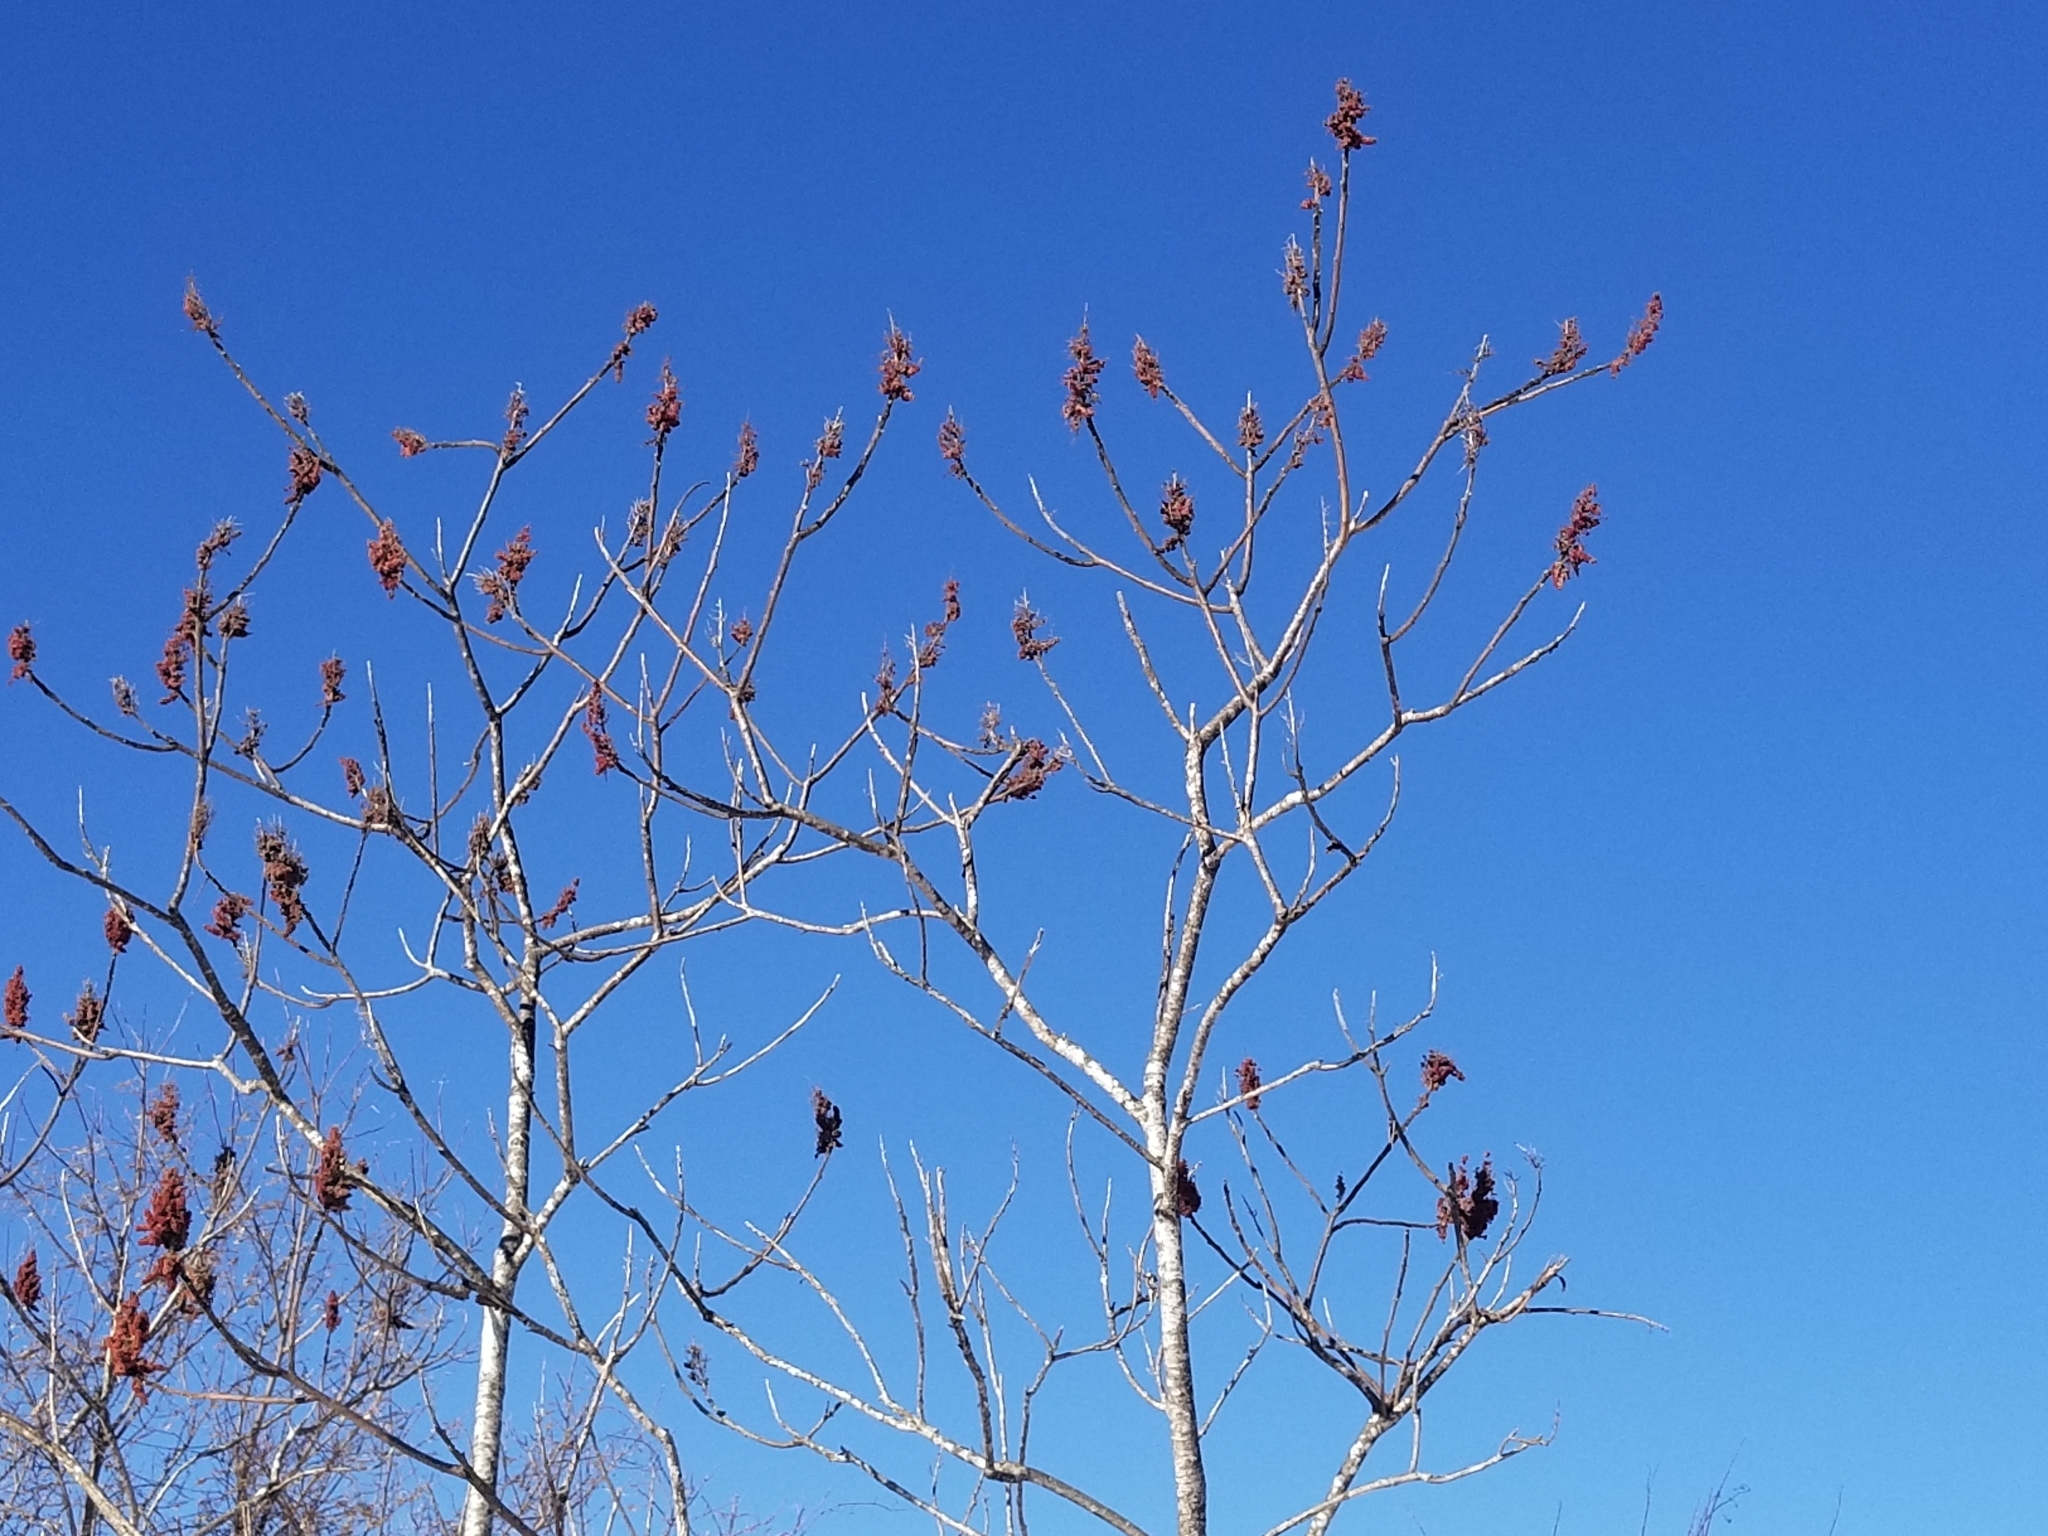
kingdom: Plantae
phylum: Tracheophyta
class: Magnoliopsida
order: Sapindales
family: Anacardiaceae
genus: Rhus
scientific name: Rhus typhina
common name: Staghorn sumac
